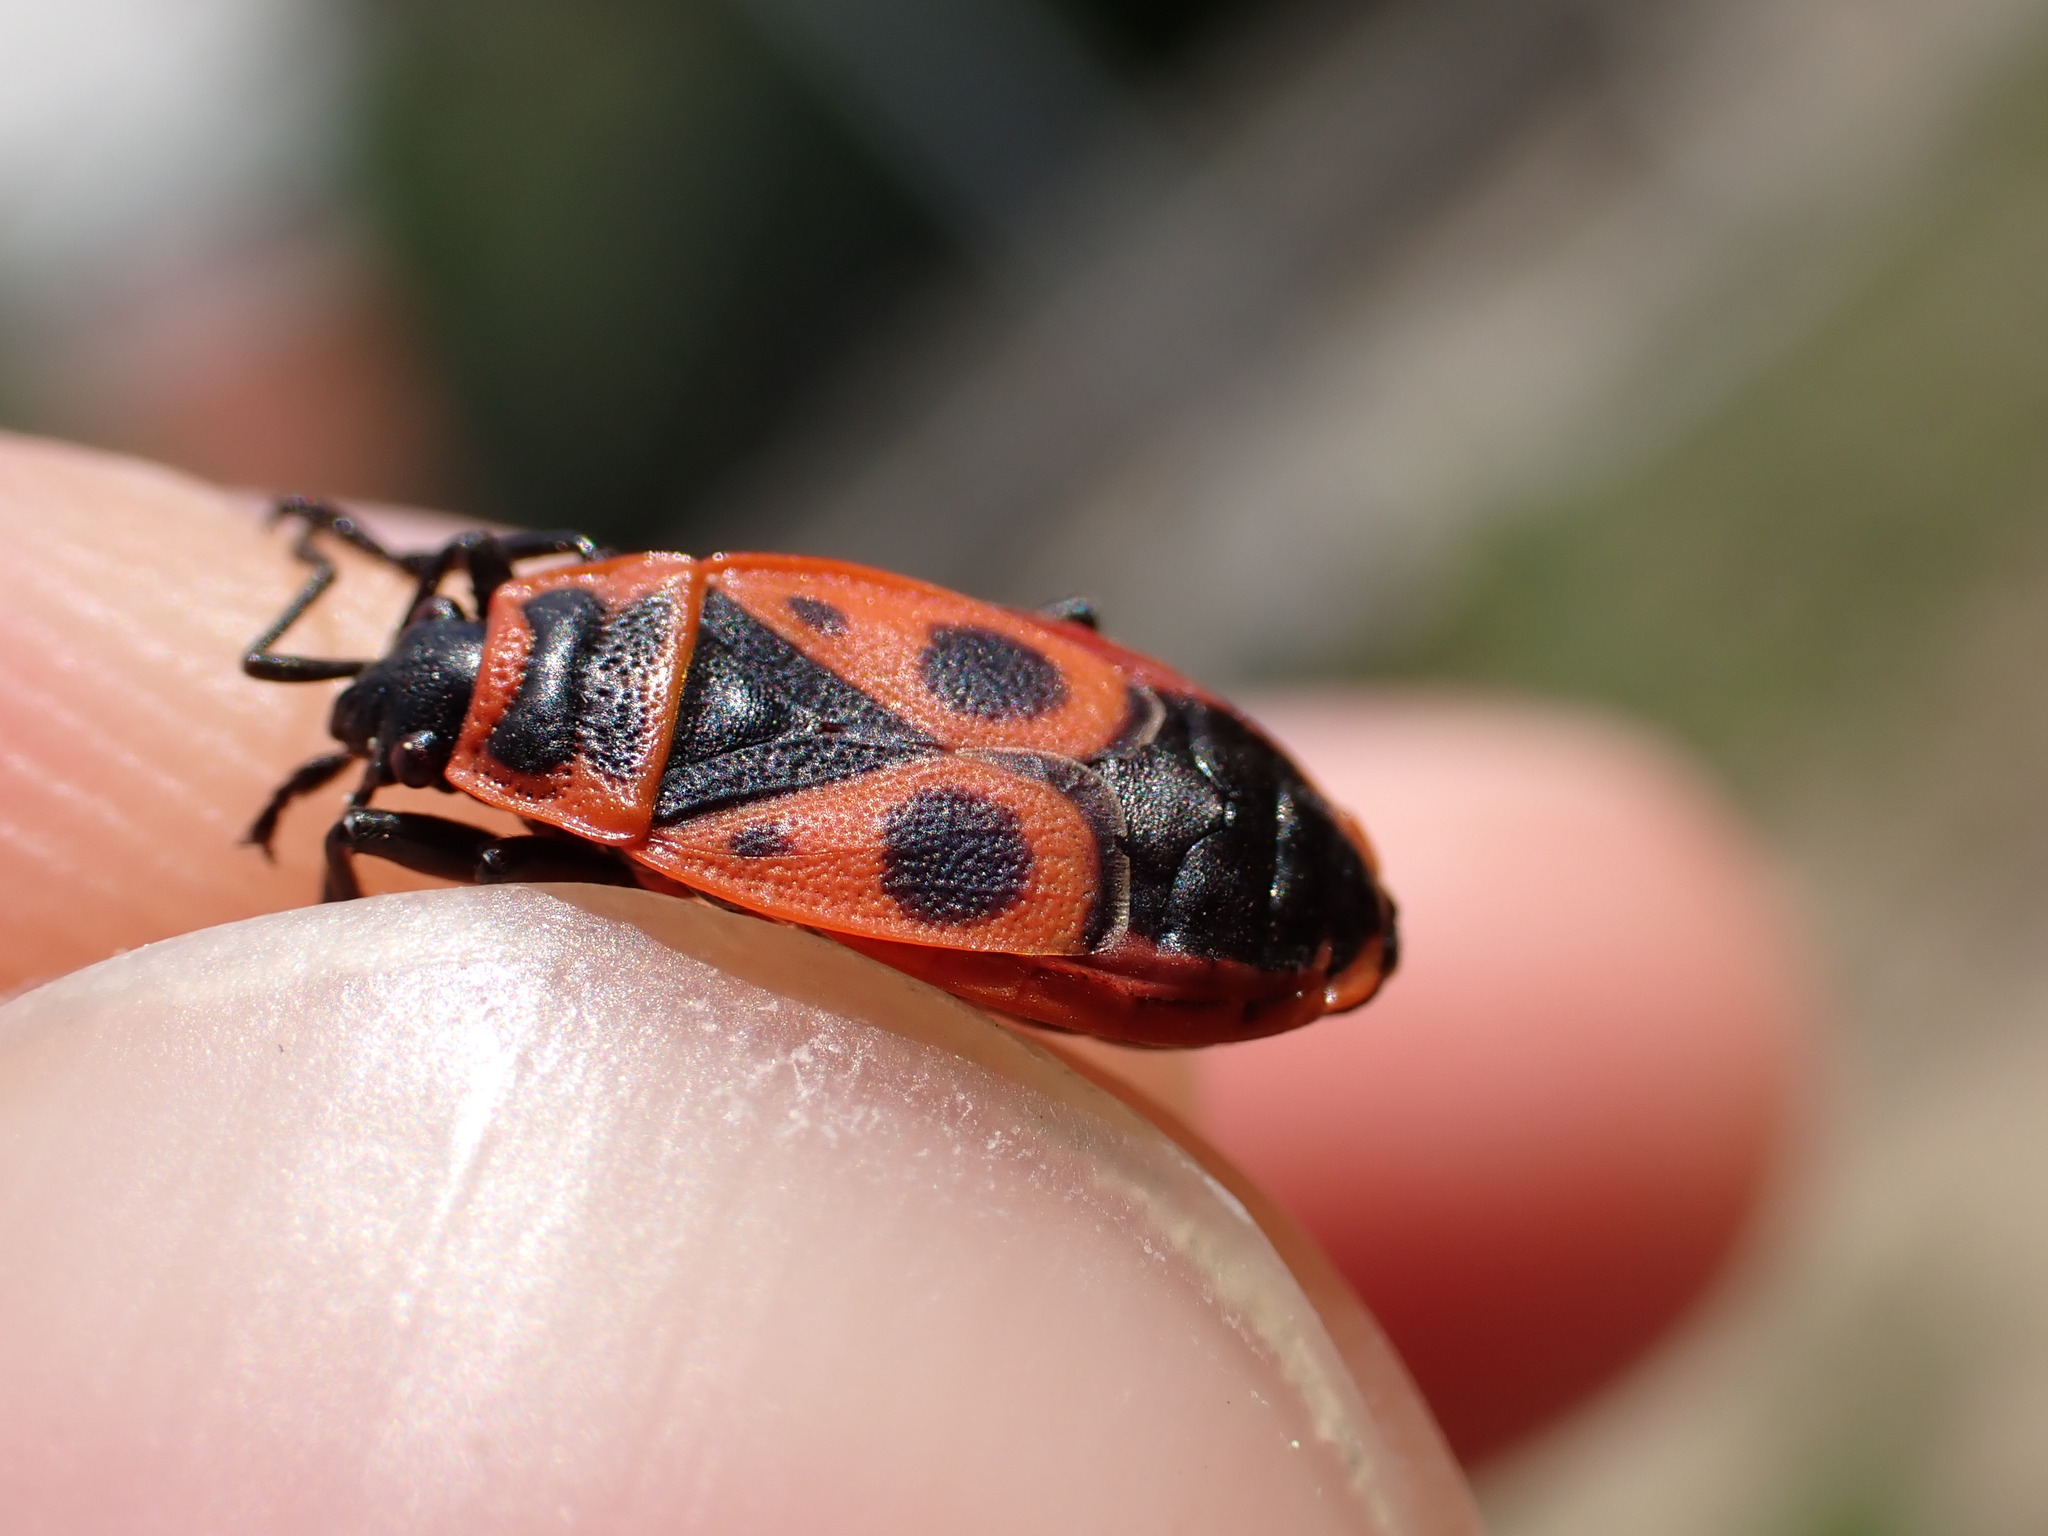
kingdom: Animalia
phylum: Arthropoda
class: Insecta
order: Hemiptera
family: Pyrrhocoridae
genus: Pyrrhocoris
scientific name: Pyrrhocoris apterus
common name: Firebug
